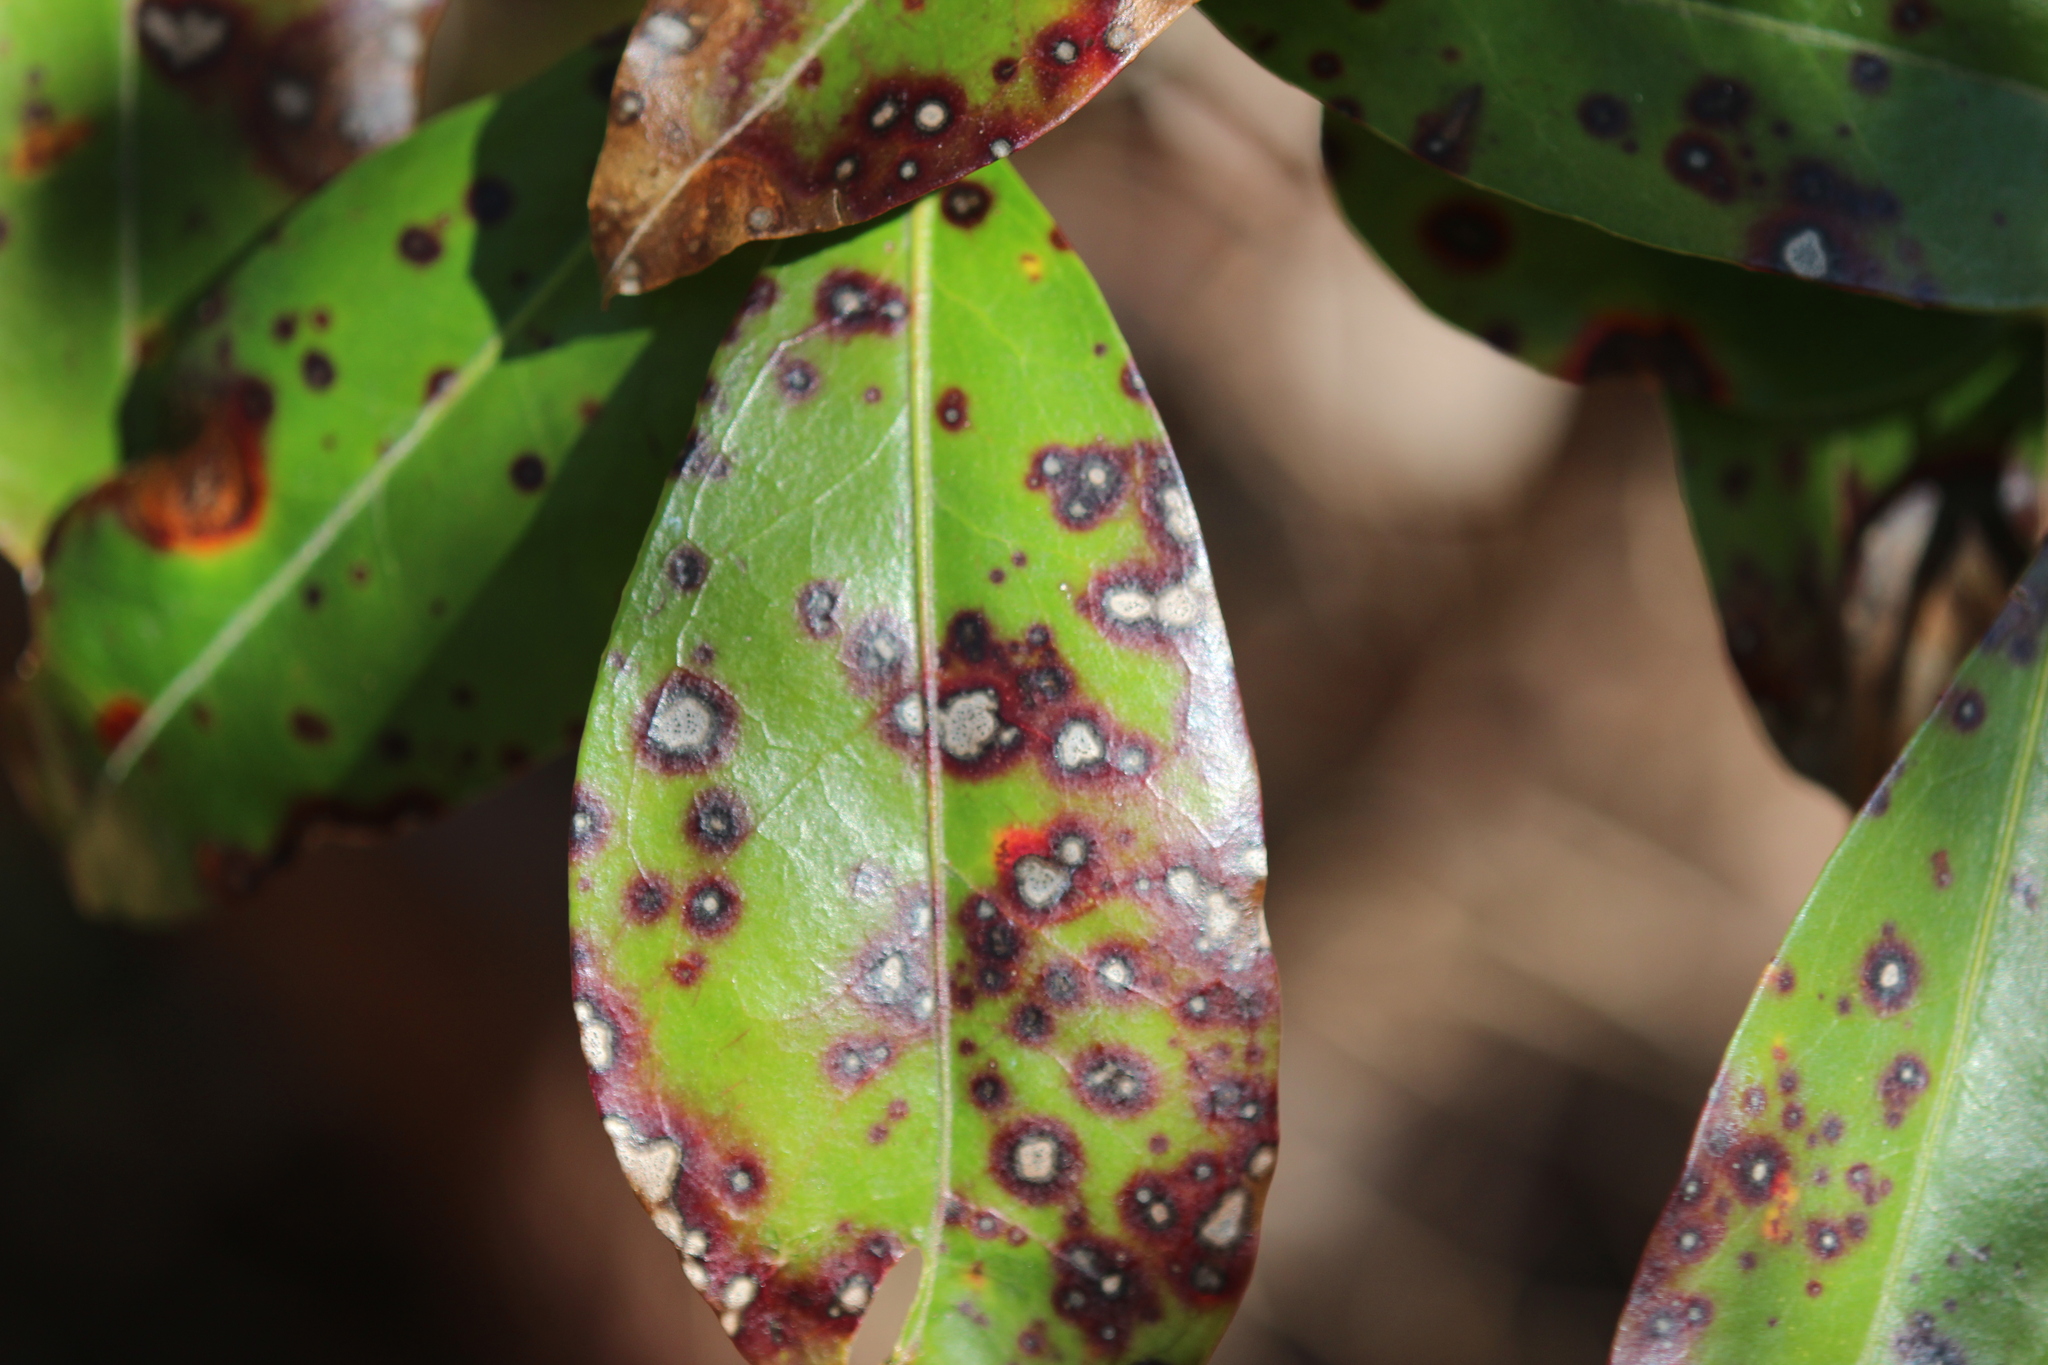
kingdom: Fungi
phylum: Ascomycota
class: Dothideomycetes
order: Mycosphaerellales
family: Mycosphaerellaceae
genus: Mycosphaerella
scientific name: Mycosphaerella colorata
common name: Mountain laurel leaf spot
